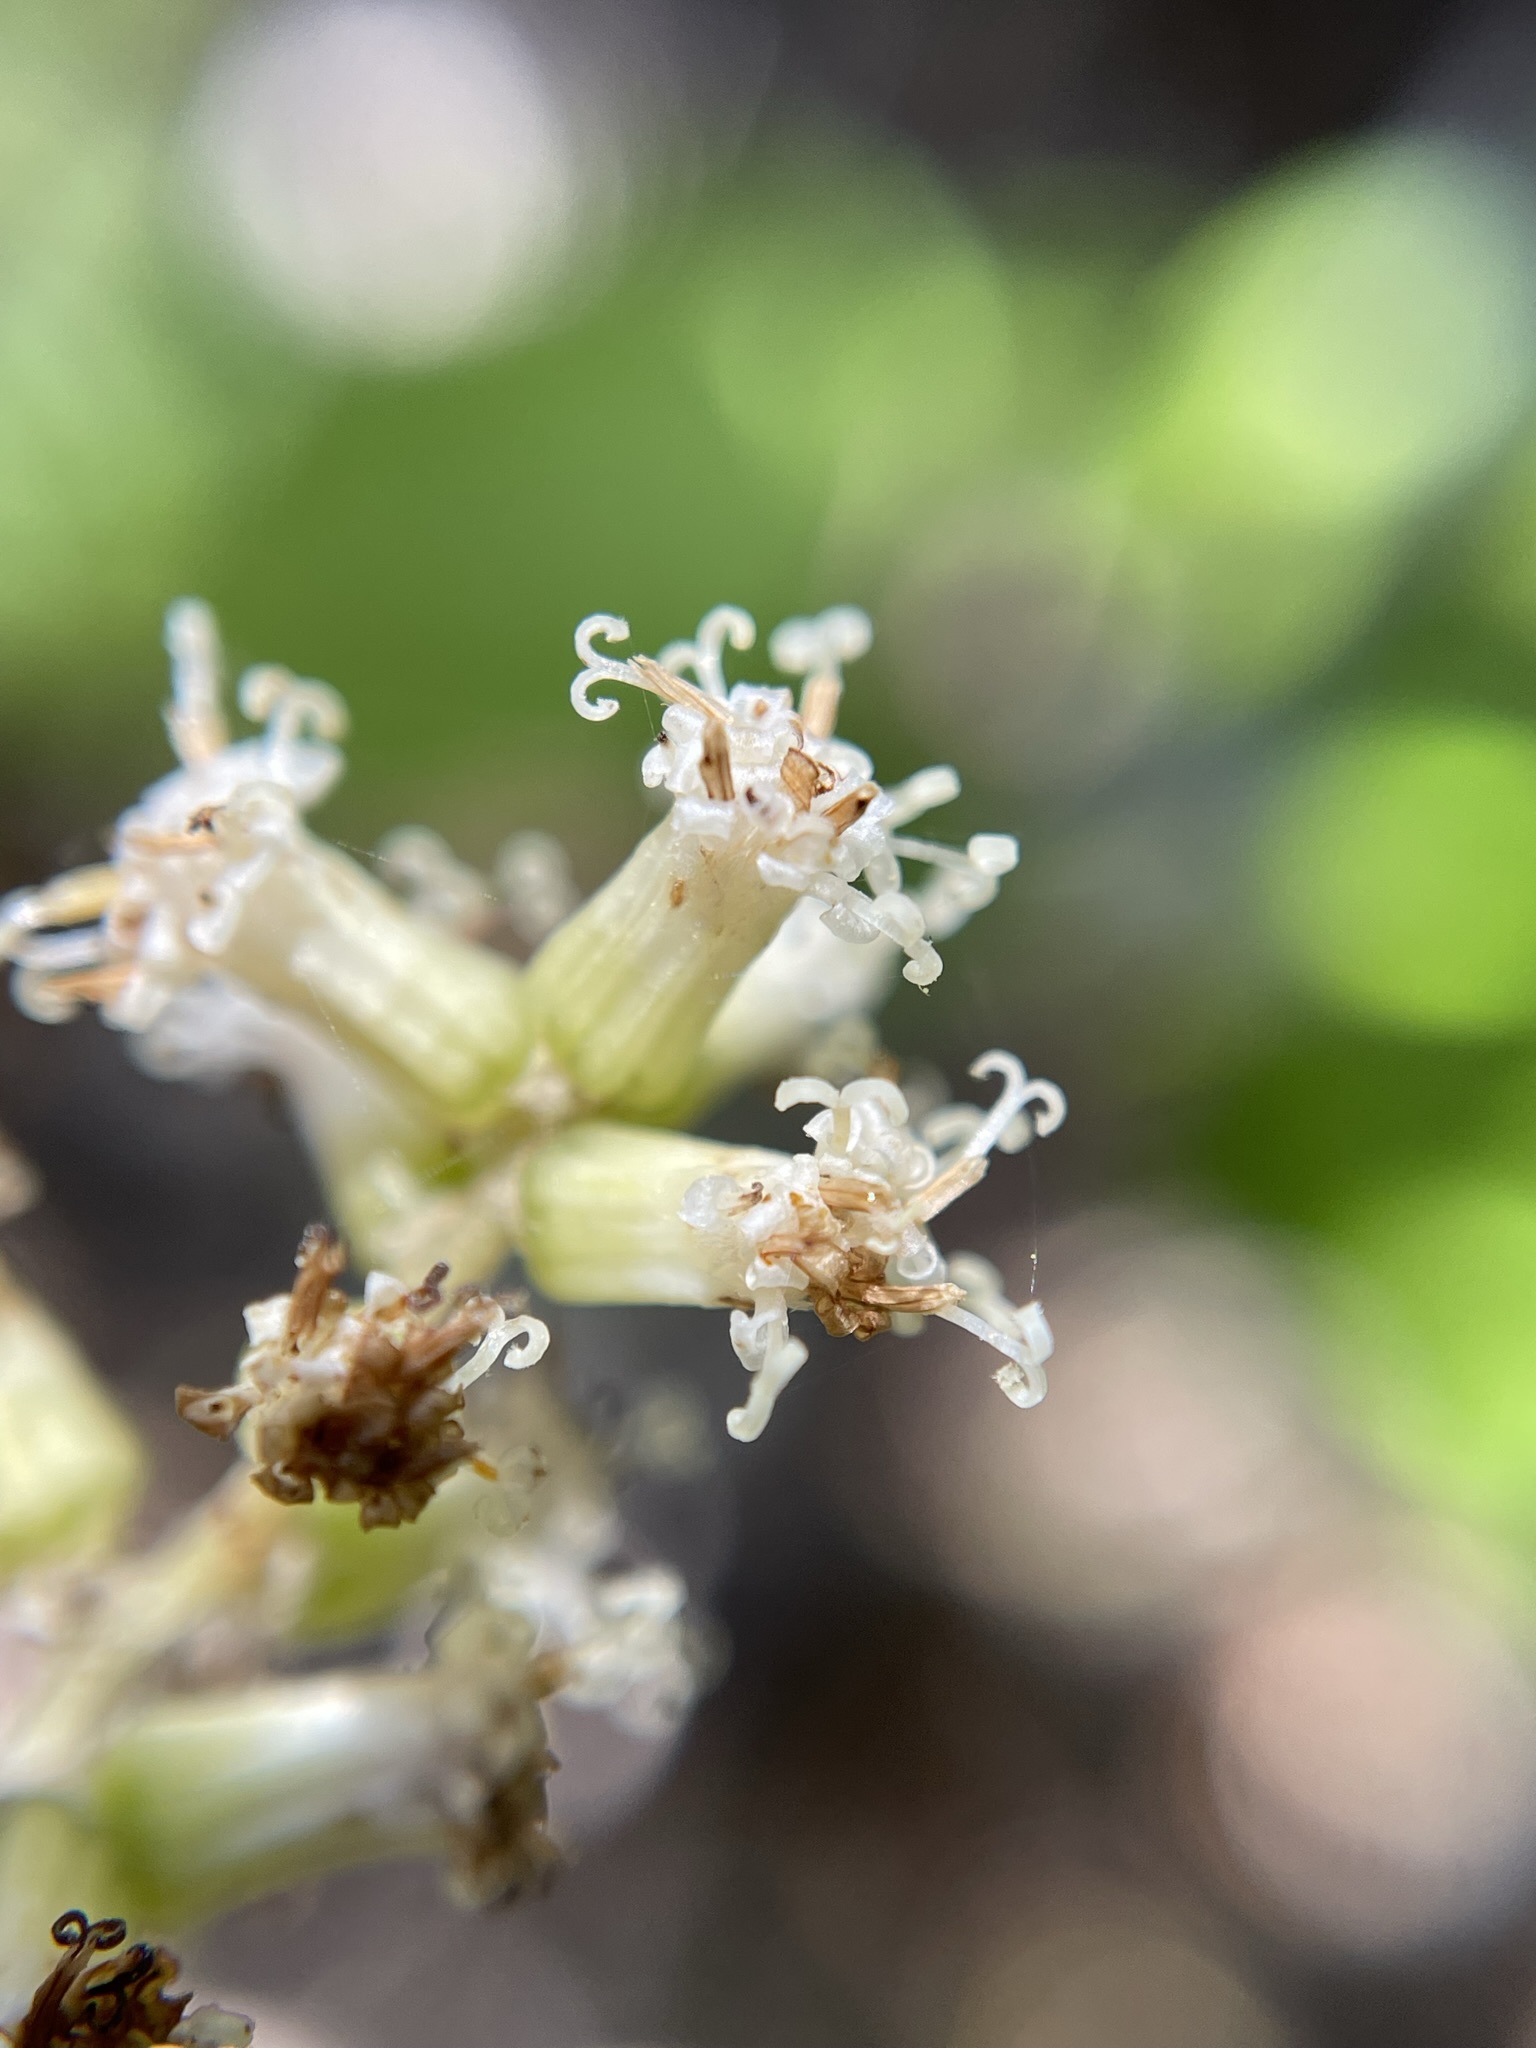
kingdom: Plantae
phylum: Tracheophyta
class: Magnoliopsida
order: Asterales
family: Asteraceae
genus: Brachyglottis
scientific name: Brachyglottis repanda
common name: Hedge ragwort
